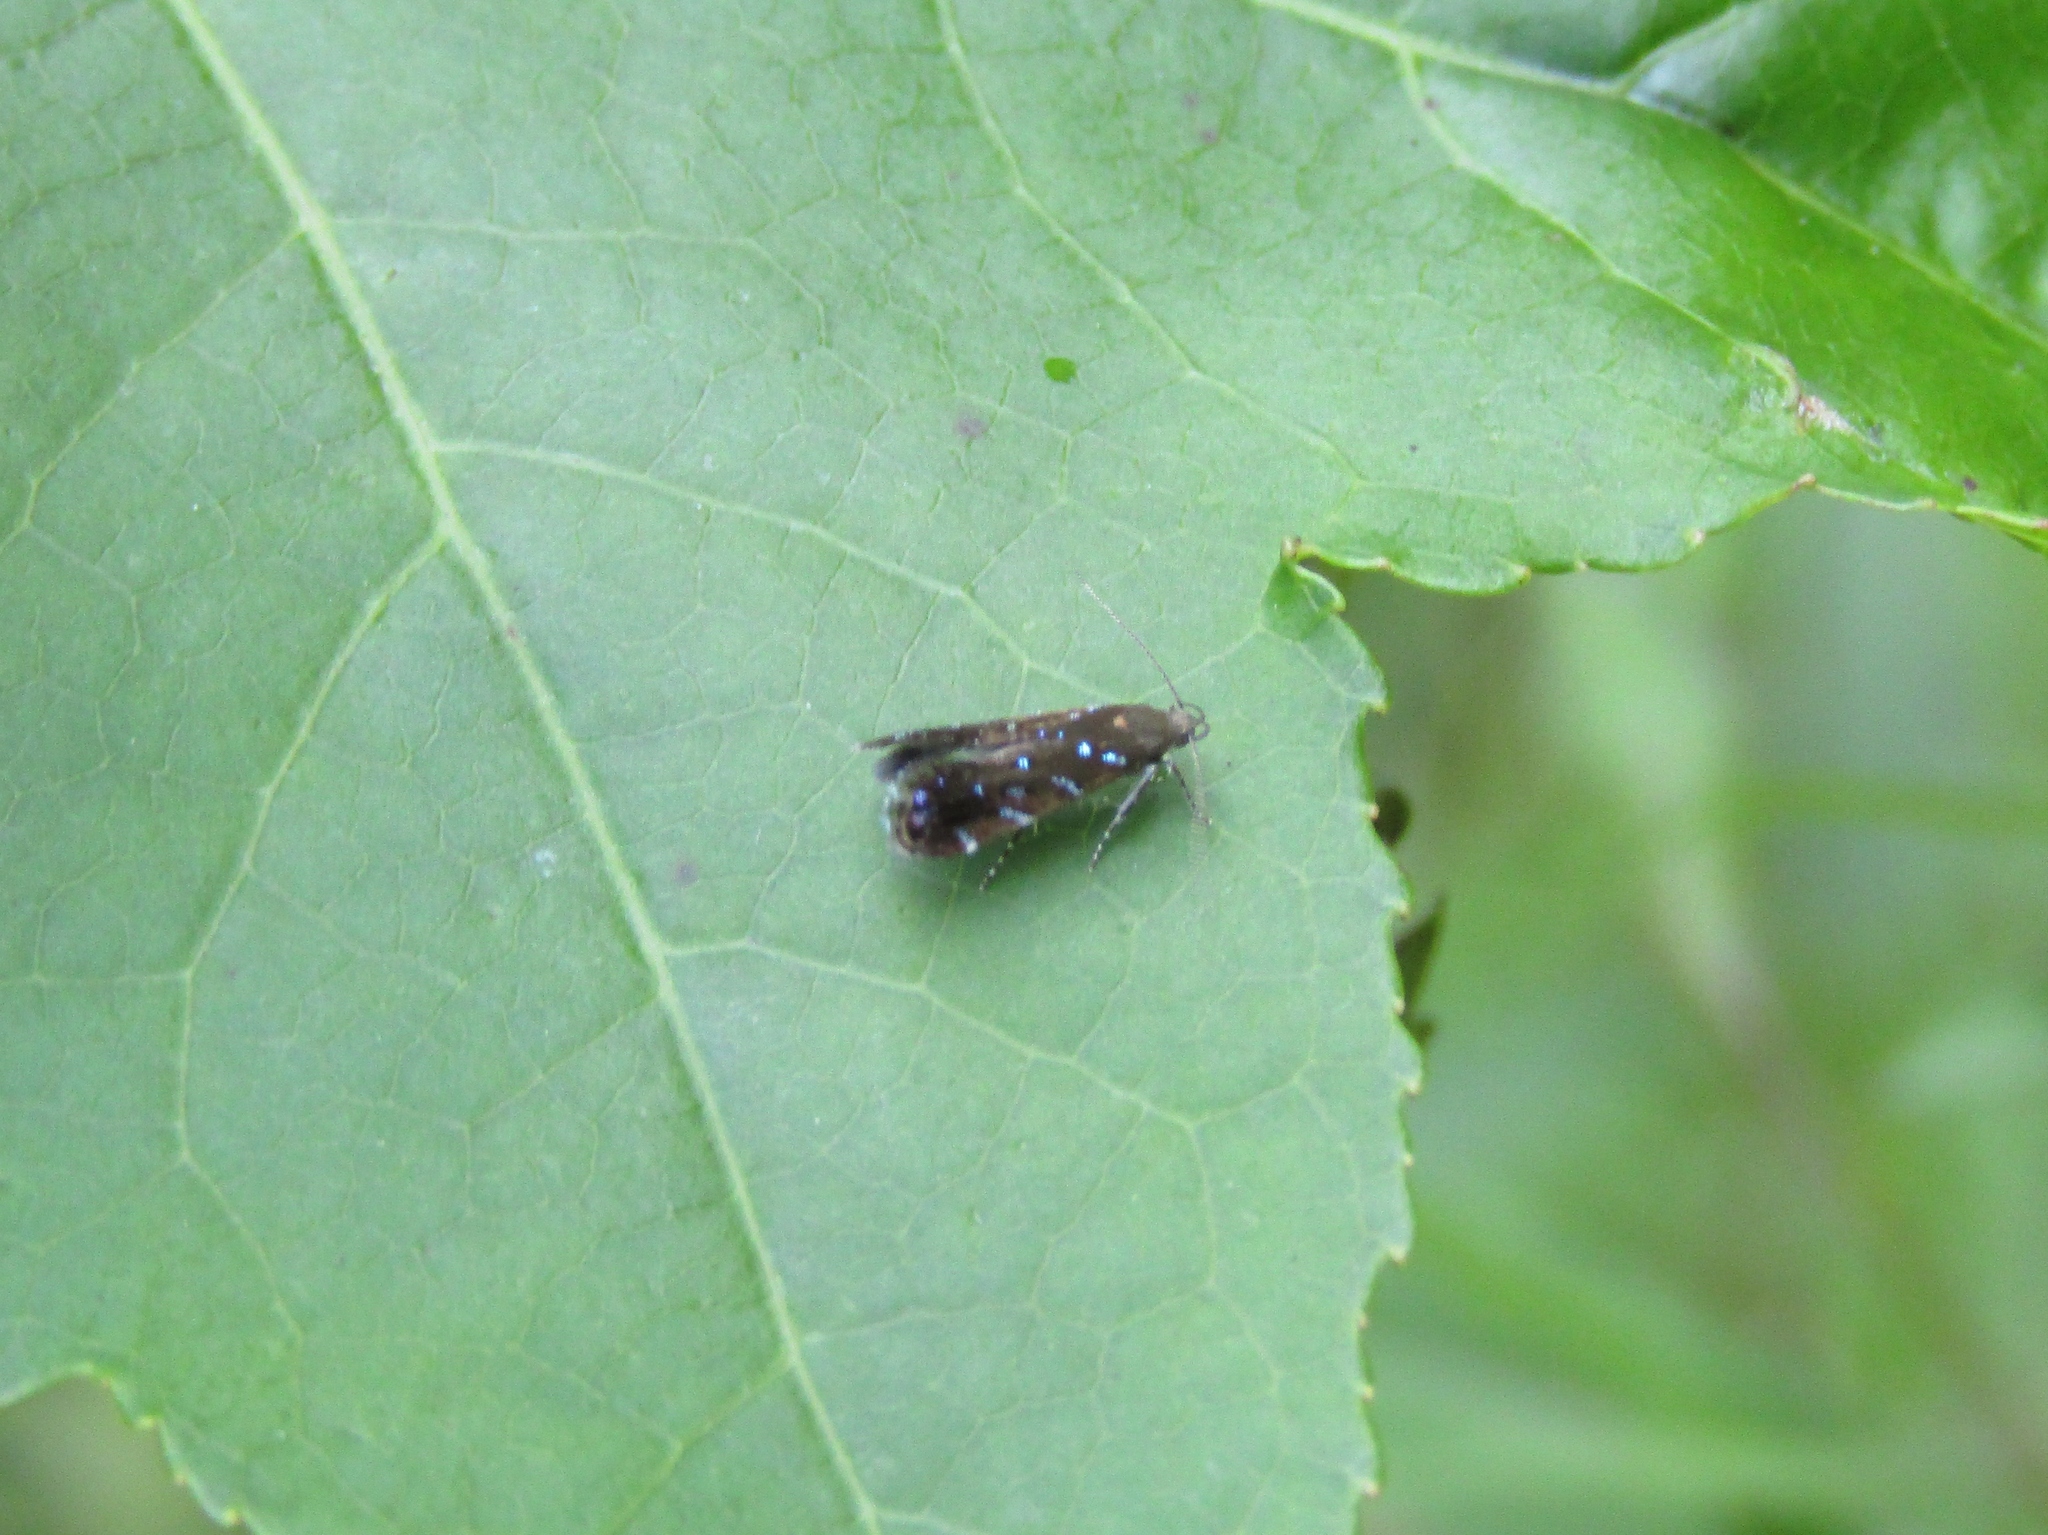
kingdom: Animalia
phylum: Arthropoda
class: Insecta
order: Lepidoptera
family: Gelechiidae
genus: Strobisia
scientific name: Strobisia iridipennella
